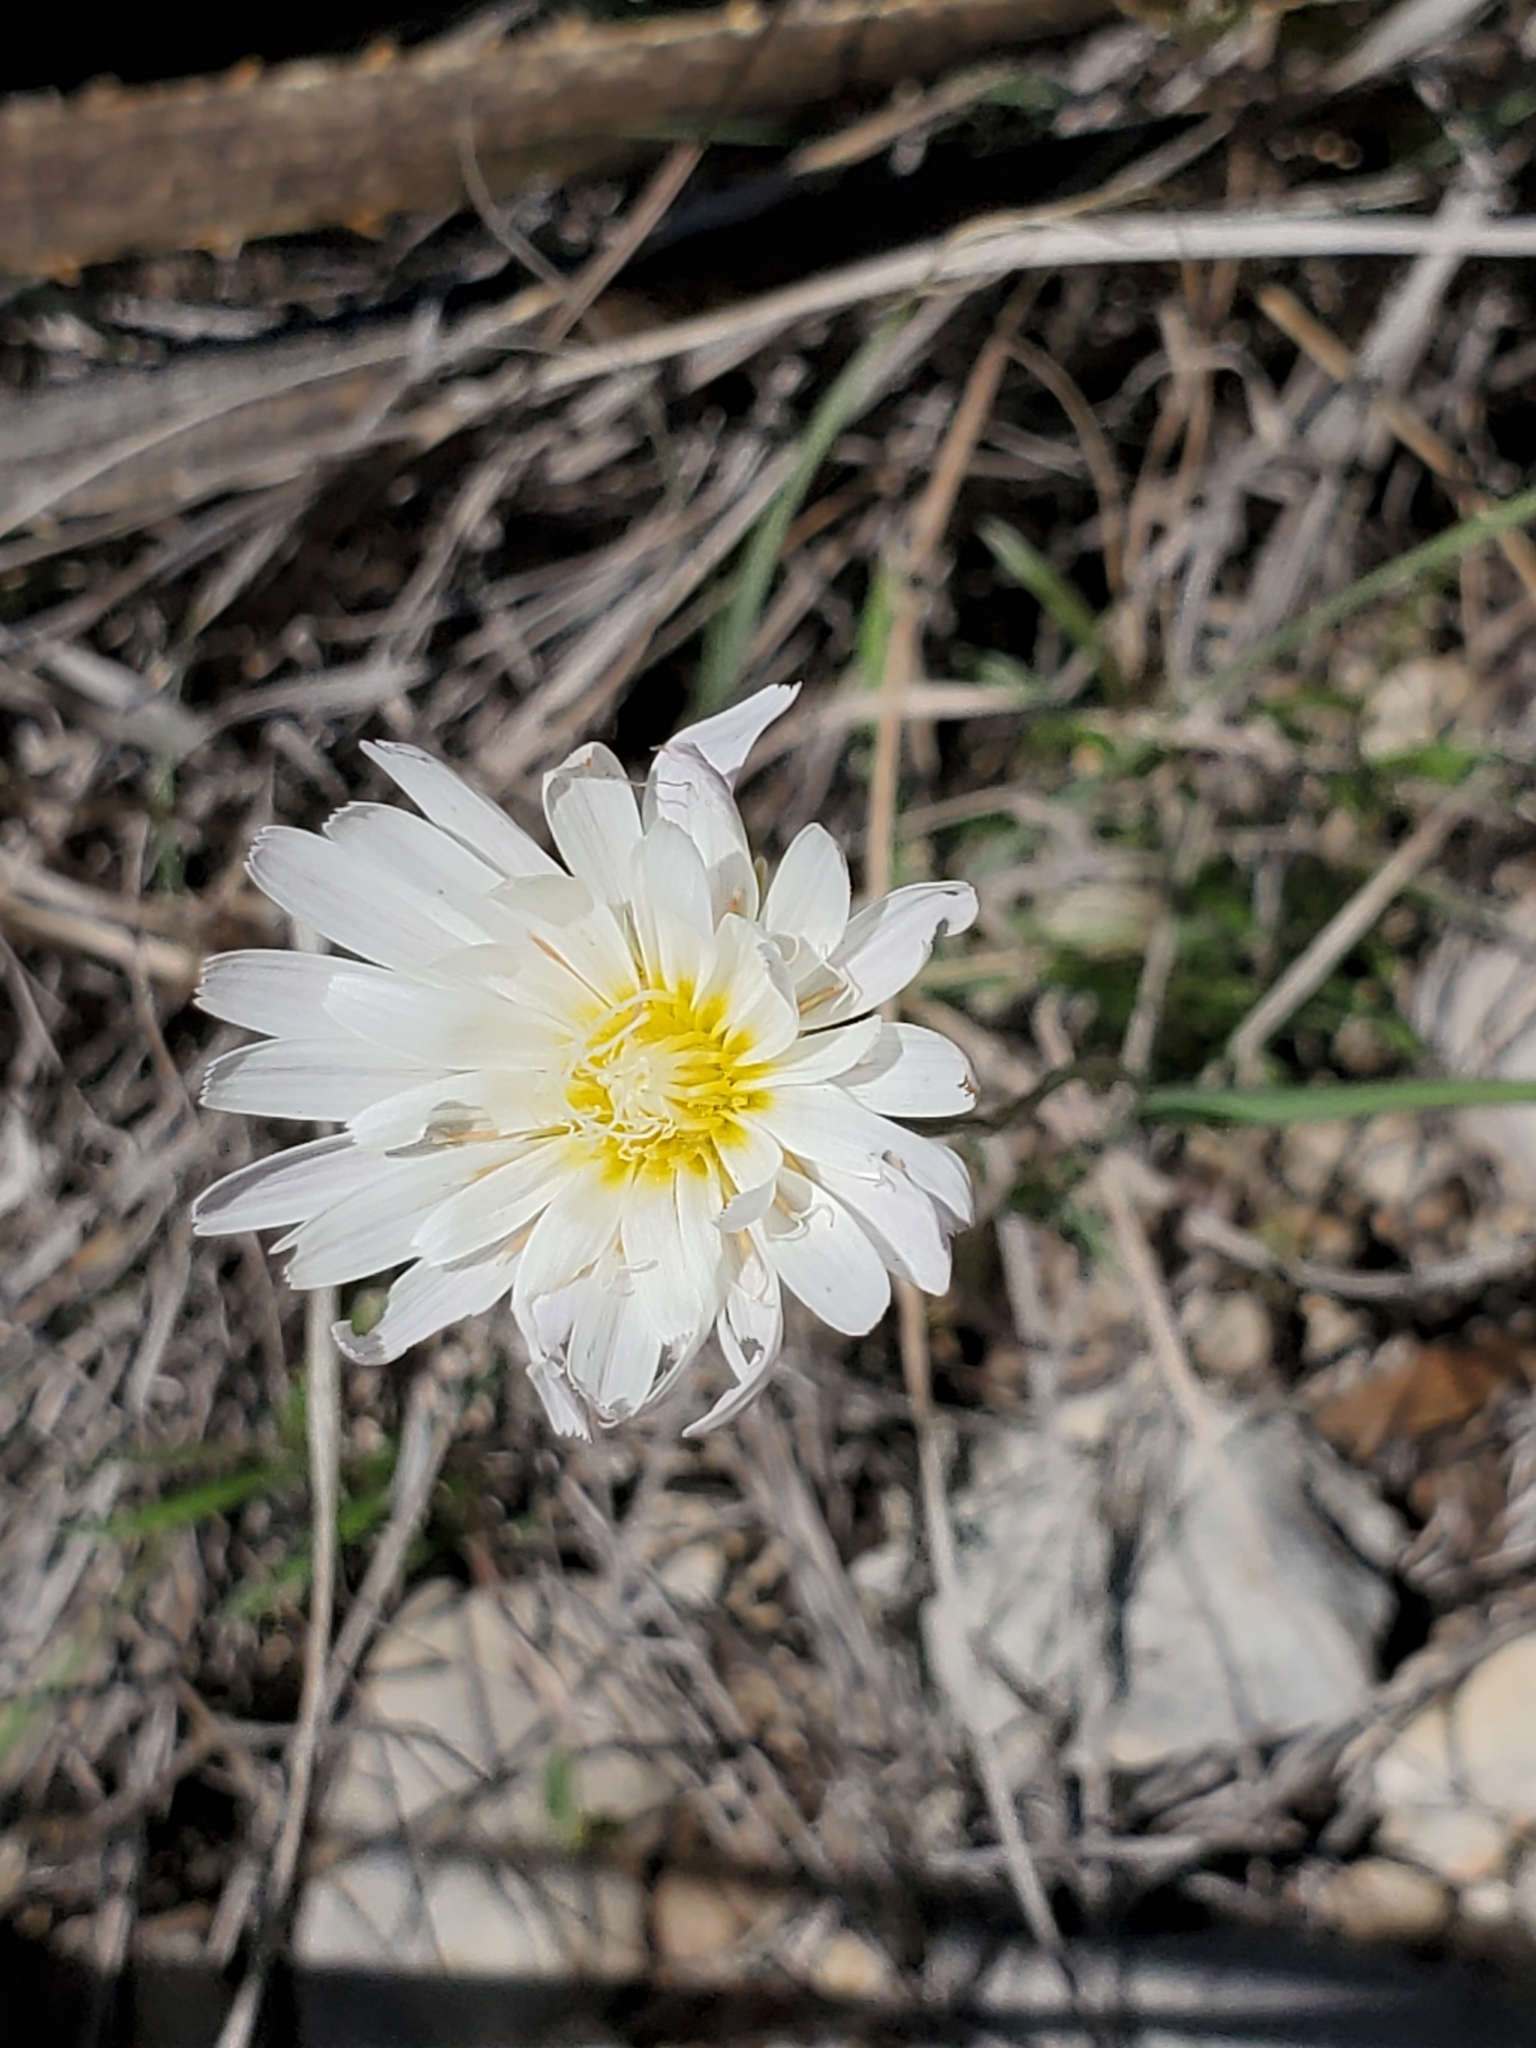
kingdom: Plantae
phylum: Tracheophyta
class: Magnoliopsida
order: Asterales
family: Asteraceae
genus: Pinaropappus
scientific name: Pinaropappus roseus
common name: Rock-lettuce
